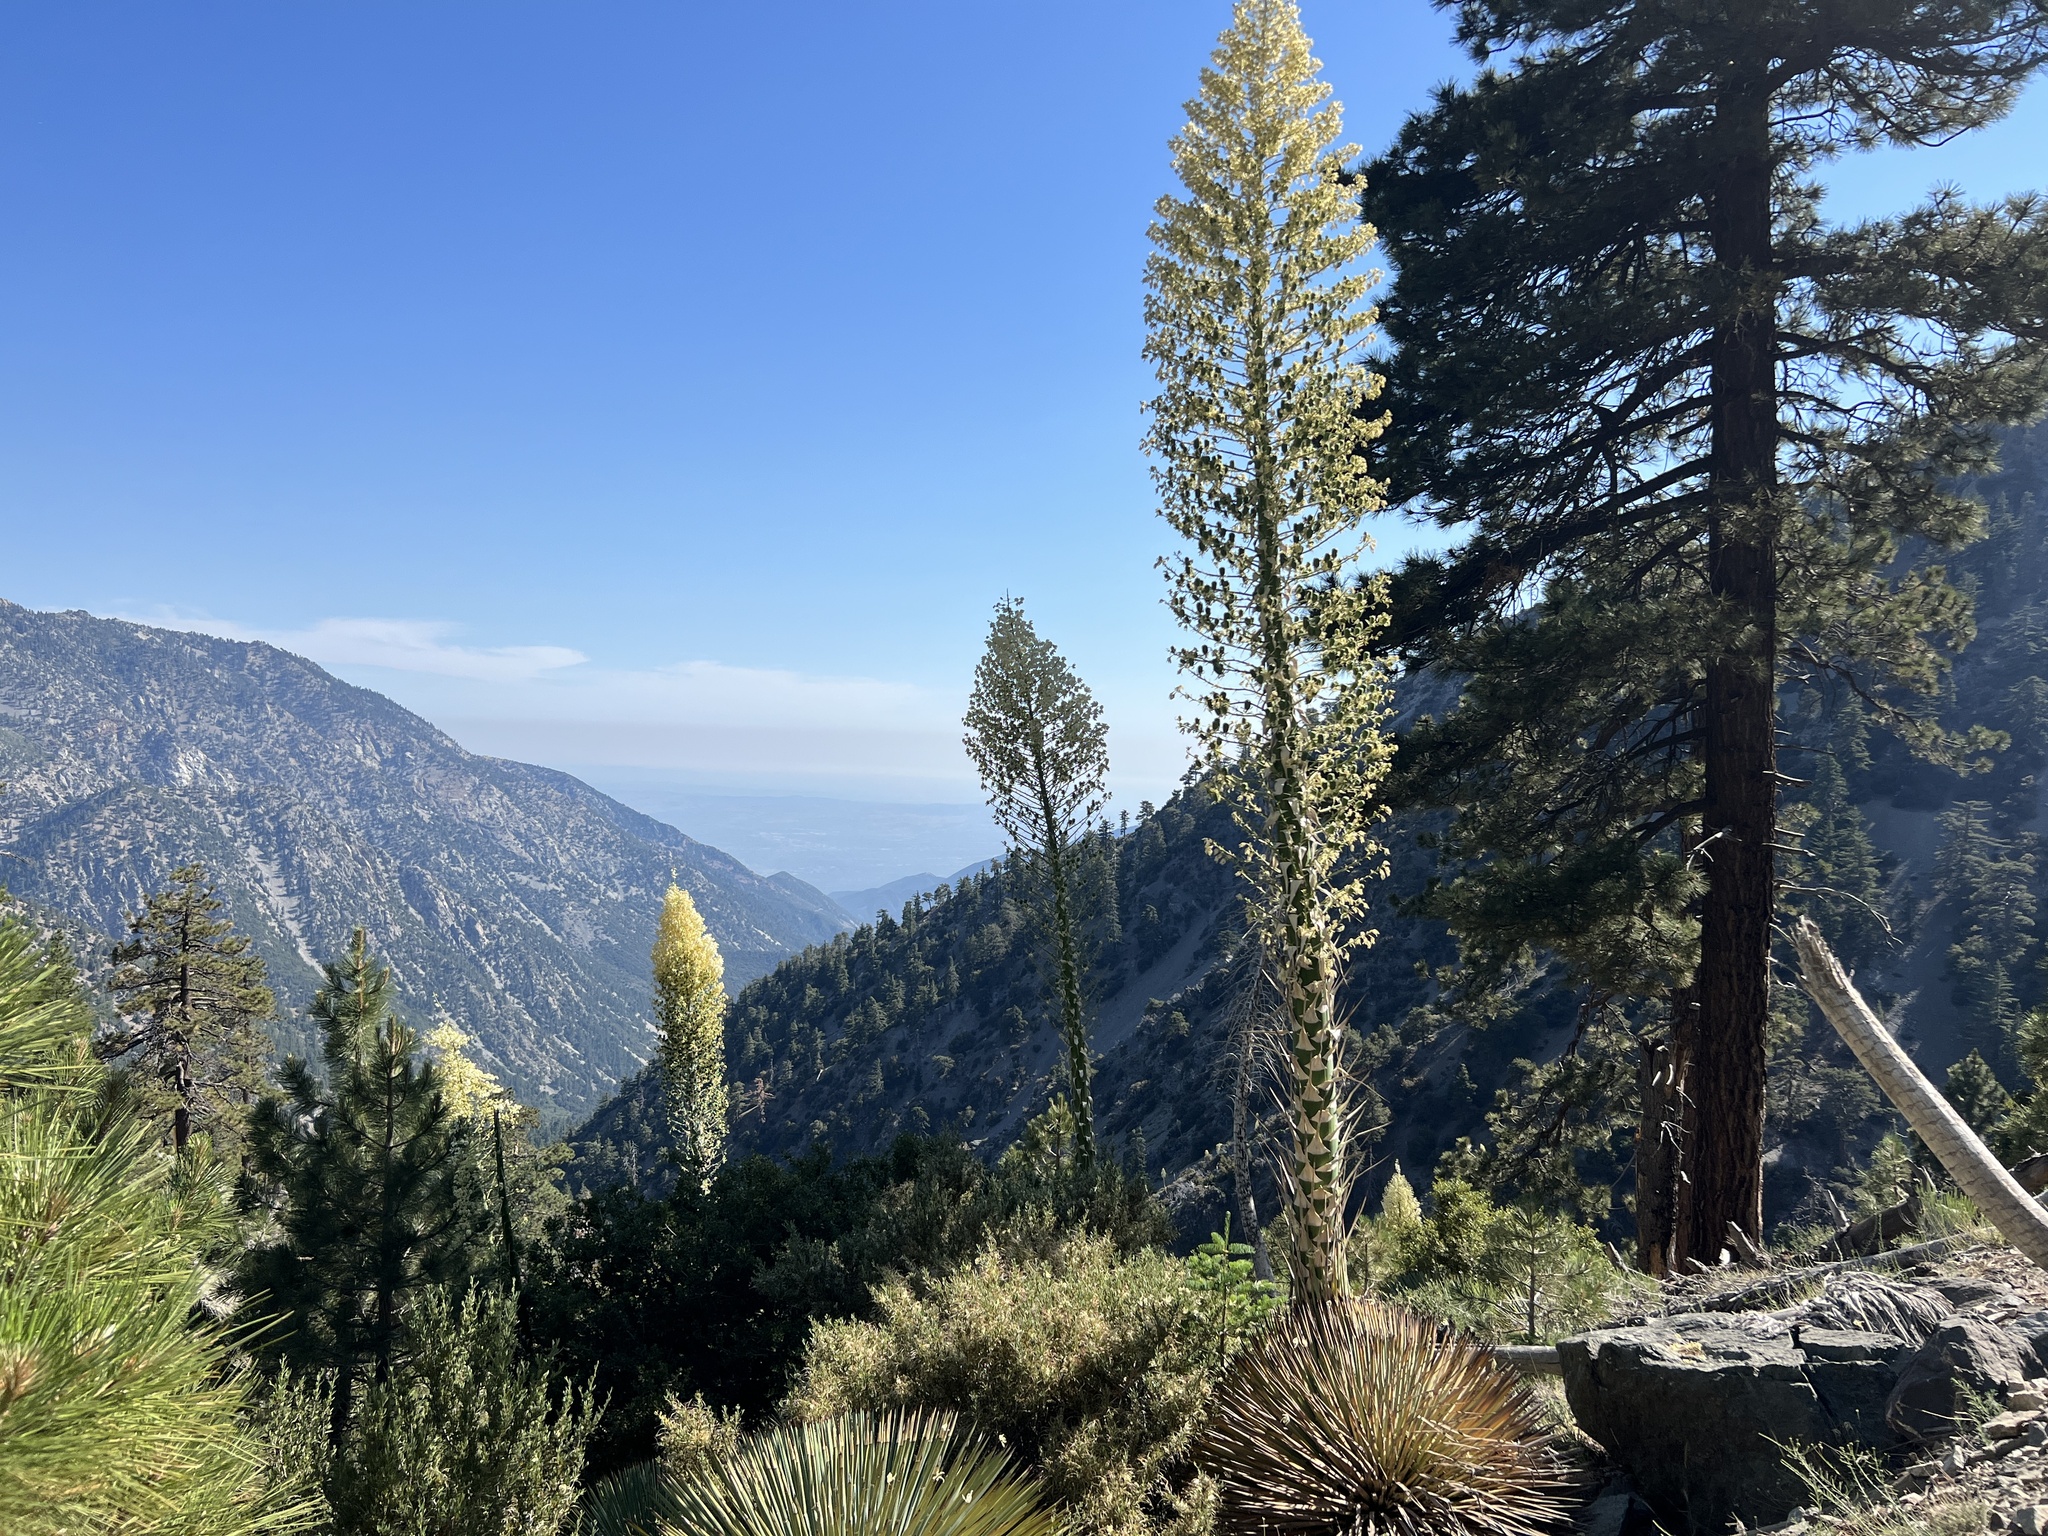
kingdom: Plantae
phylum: Tracheophyta
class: Liliopsida
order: Asparagales
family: Asparagaceae
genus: Hesperoyucca
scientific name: Hesperoyucca whipplei
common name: Our lord's-candle
